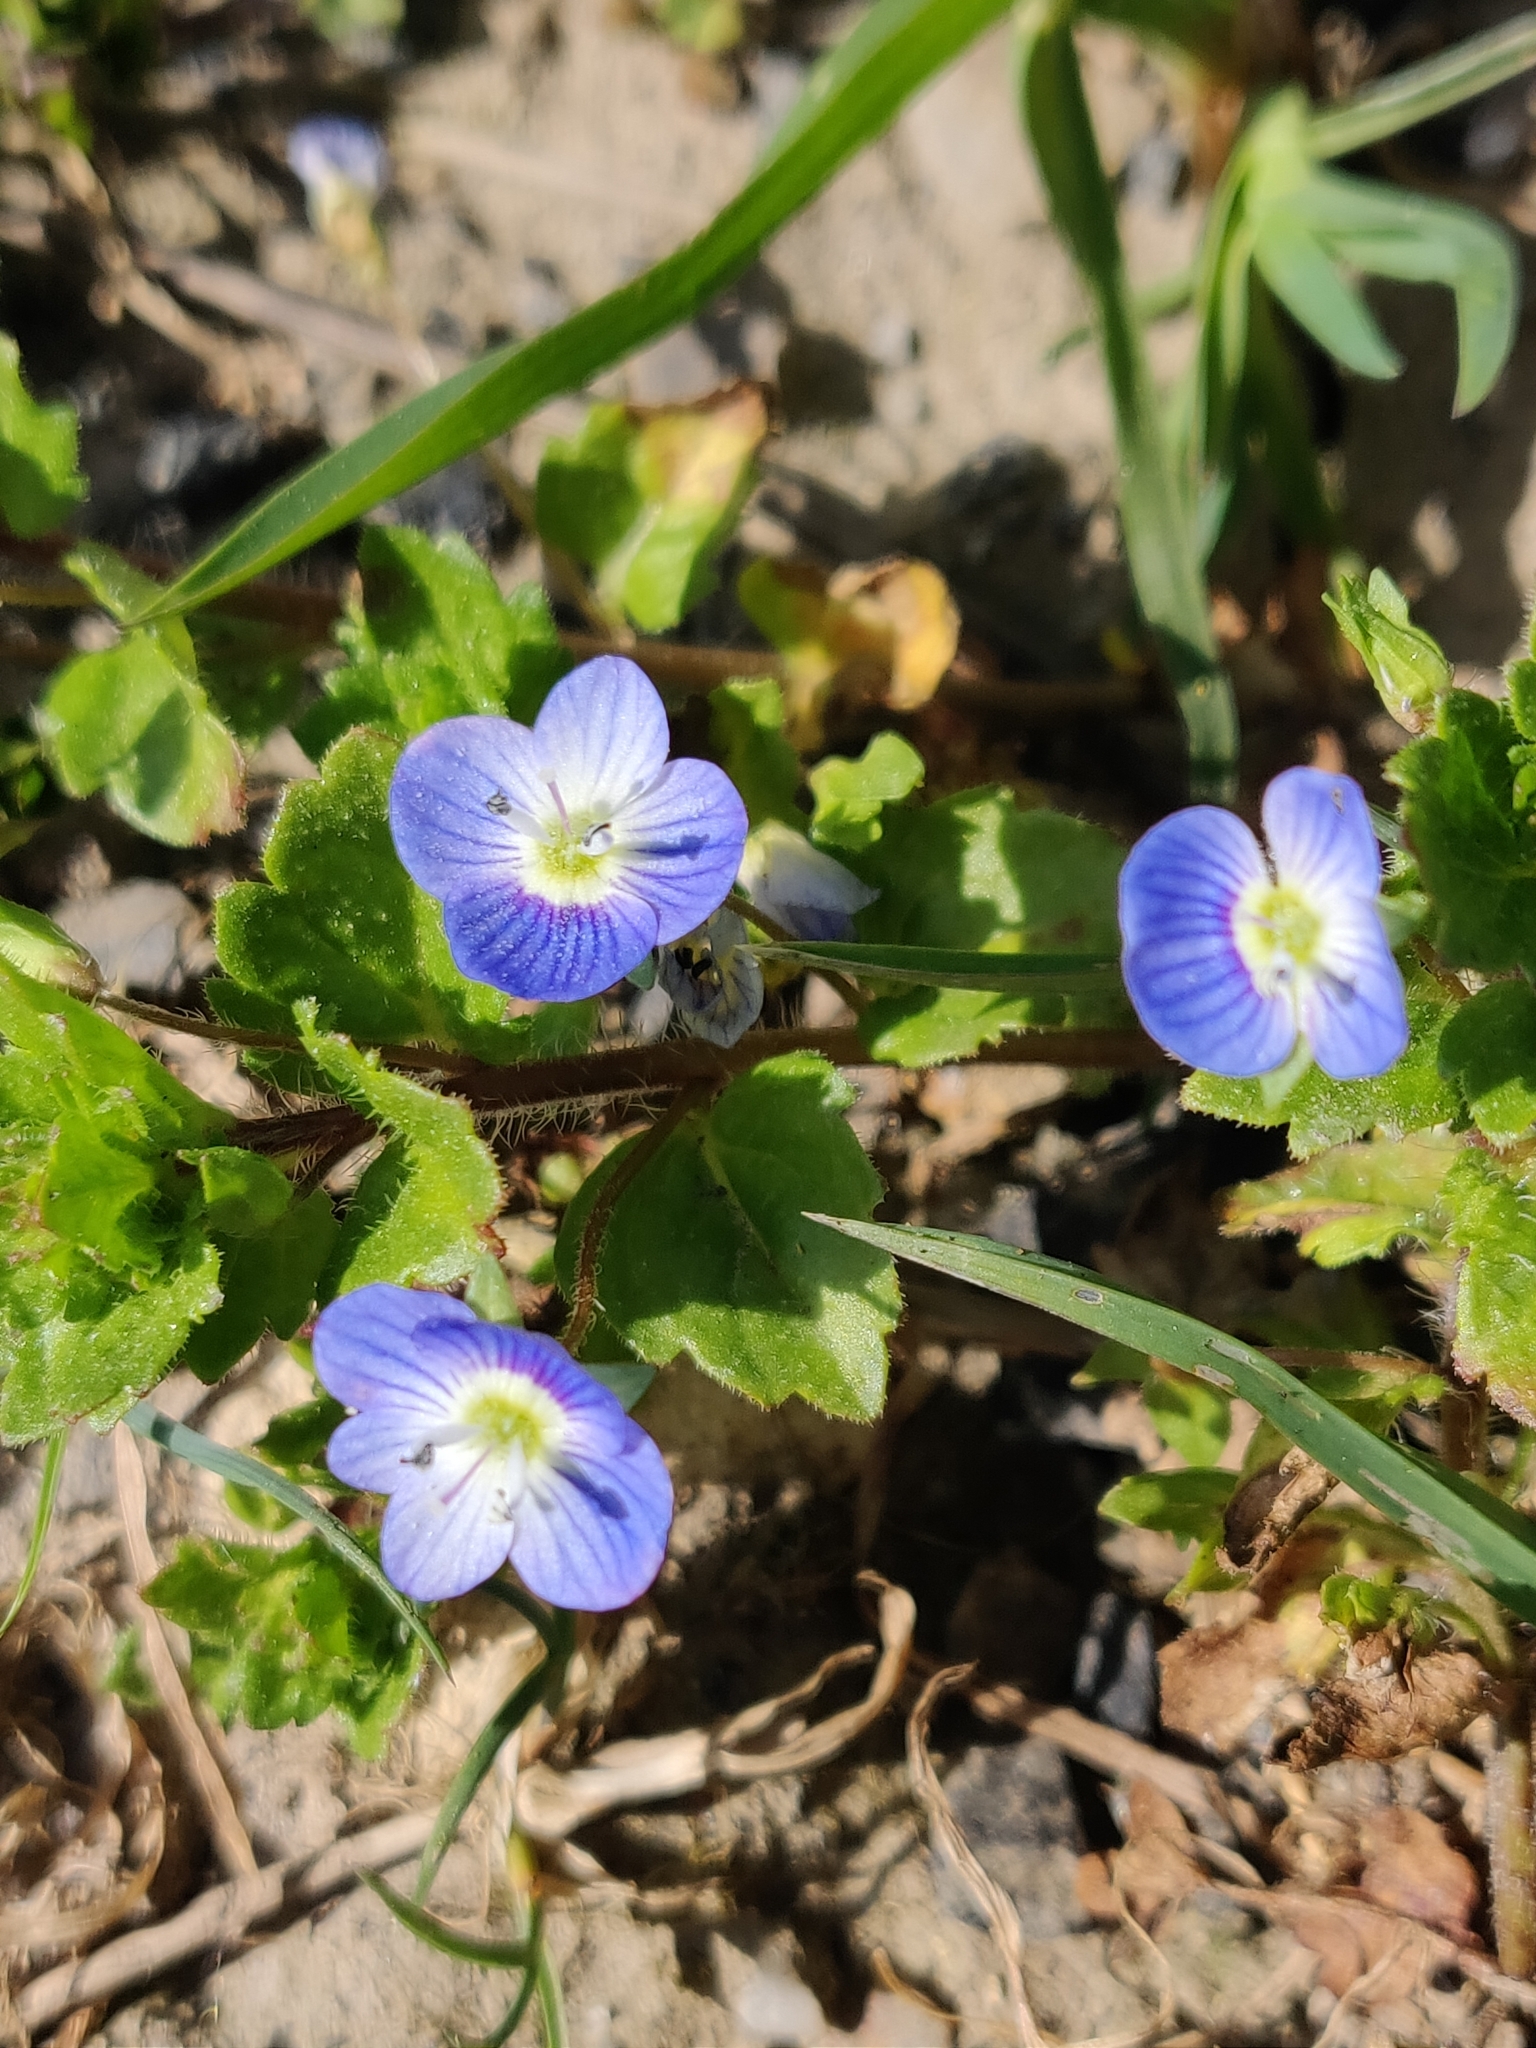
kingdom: Plantae
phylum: Tracheophyta
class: Magnoliopsida
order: Lamiales
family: Plantaginaceae
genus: Veronica
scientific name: Veronica persica
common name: Common field-speedwell
